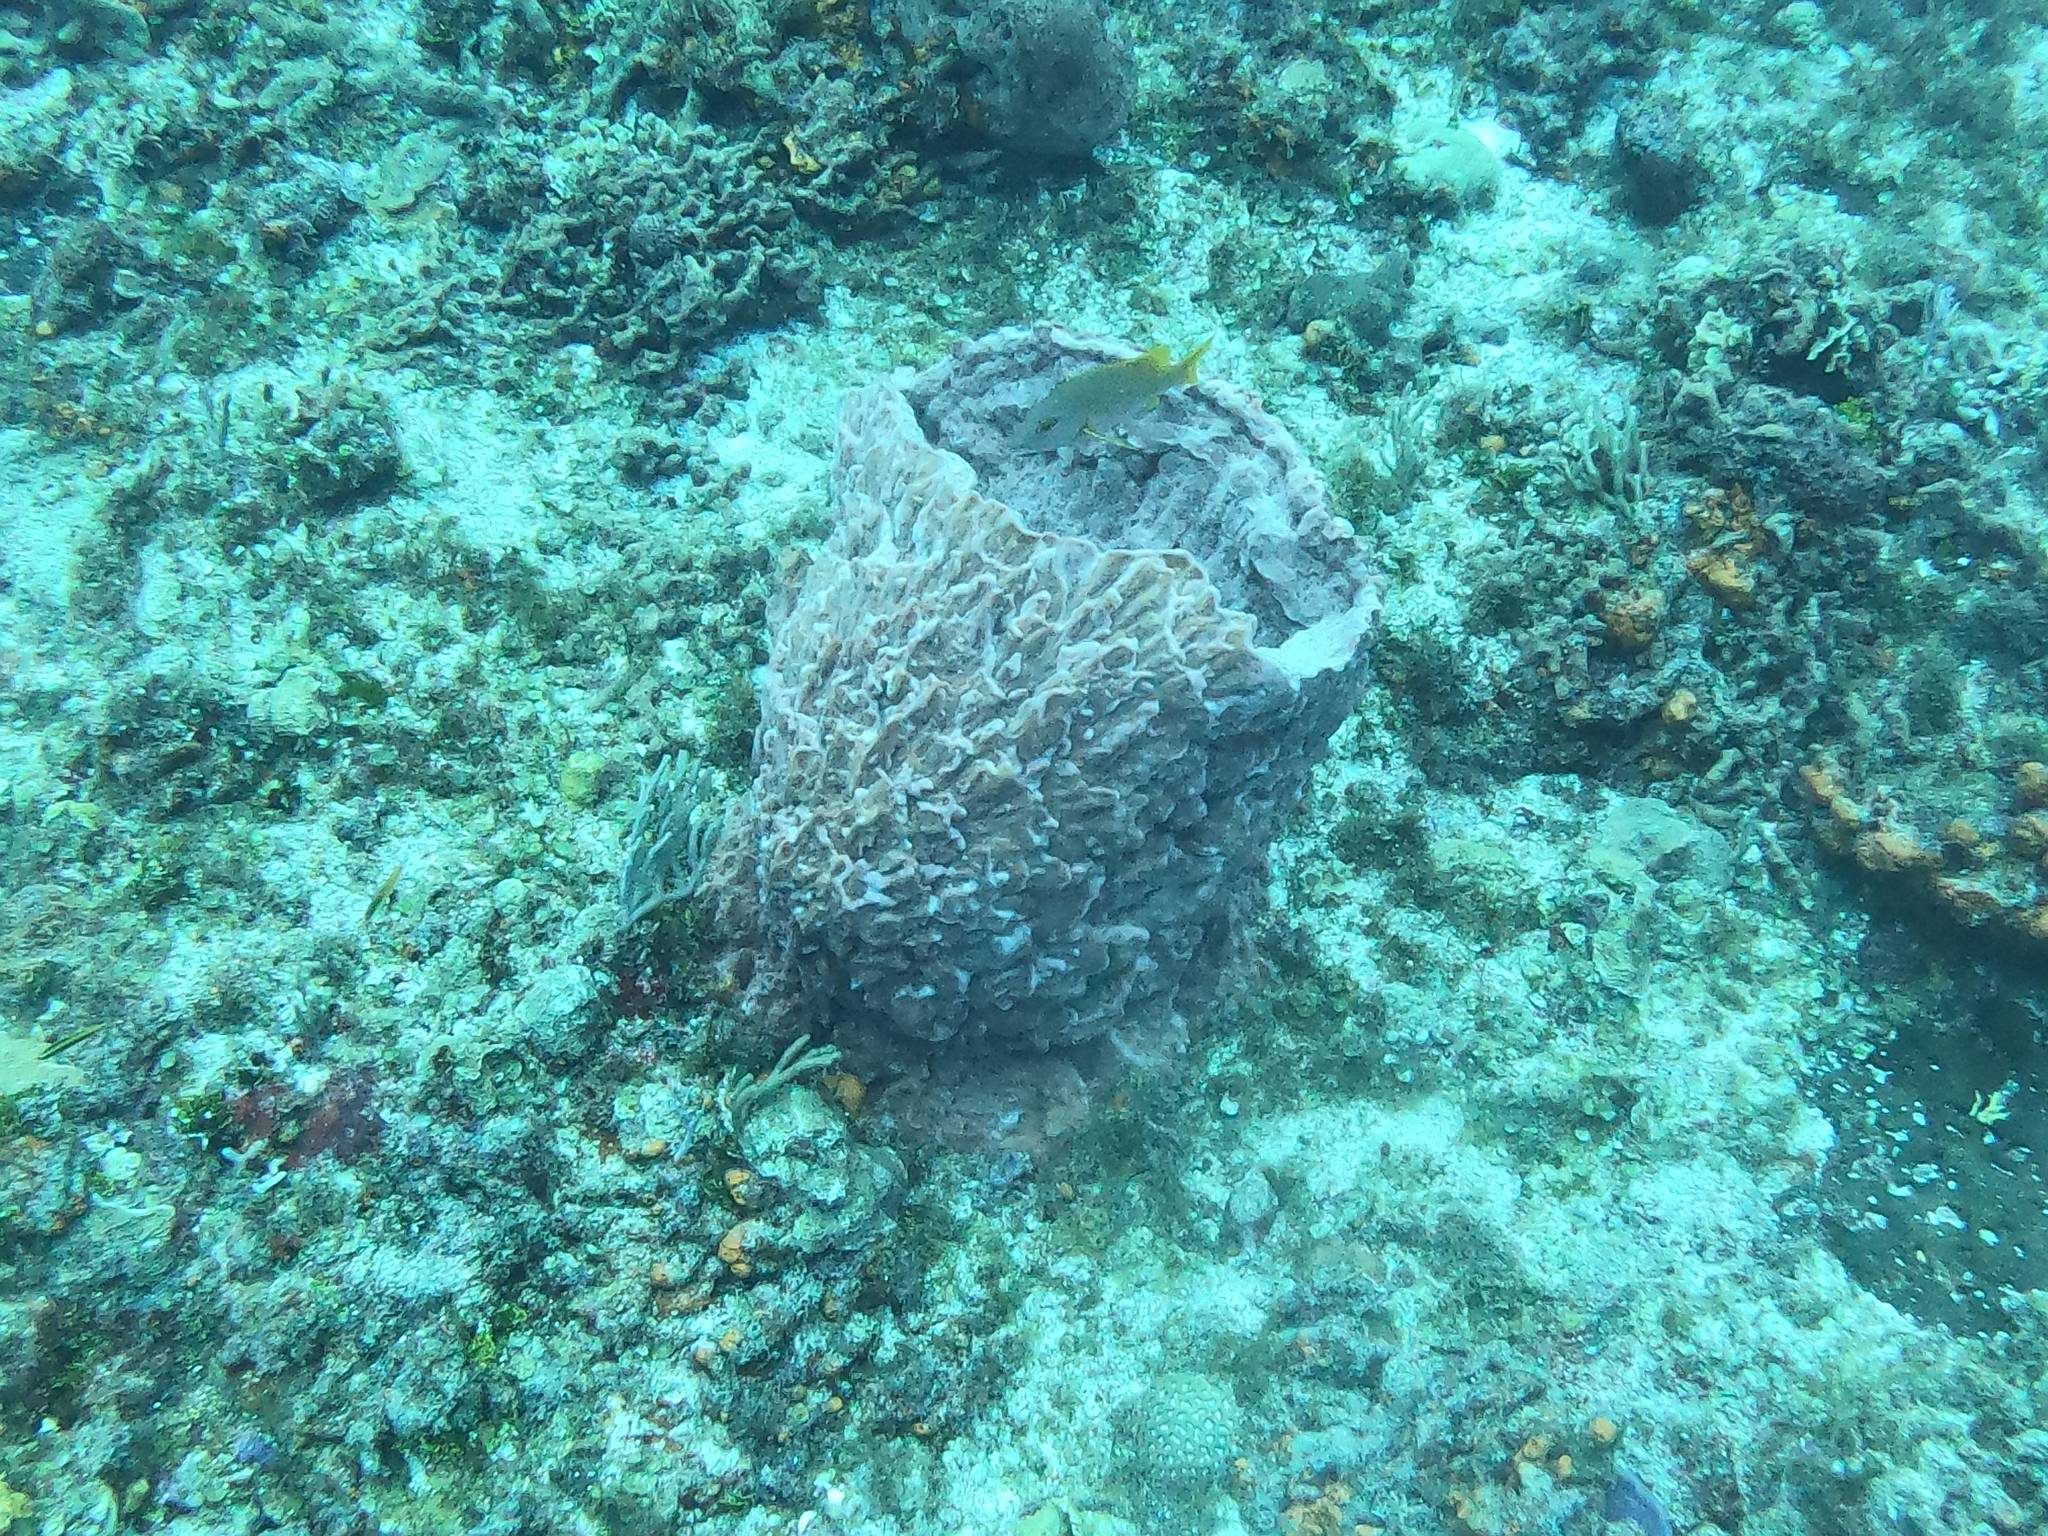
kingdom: Animalia
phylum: Porifera
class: Demospongiae
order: Haplosclerida
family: Petrosiidae
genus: Xestospongia
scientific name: Xestospongia muta
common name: Giant barrel sponge
